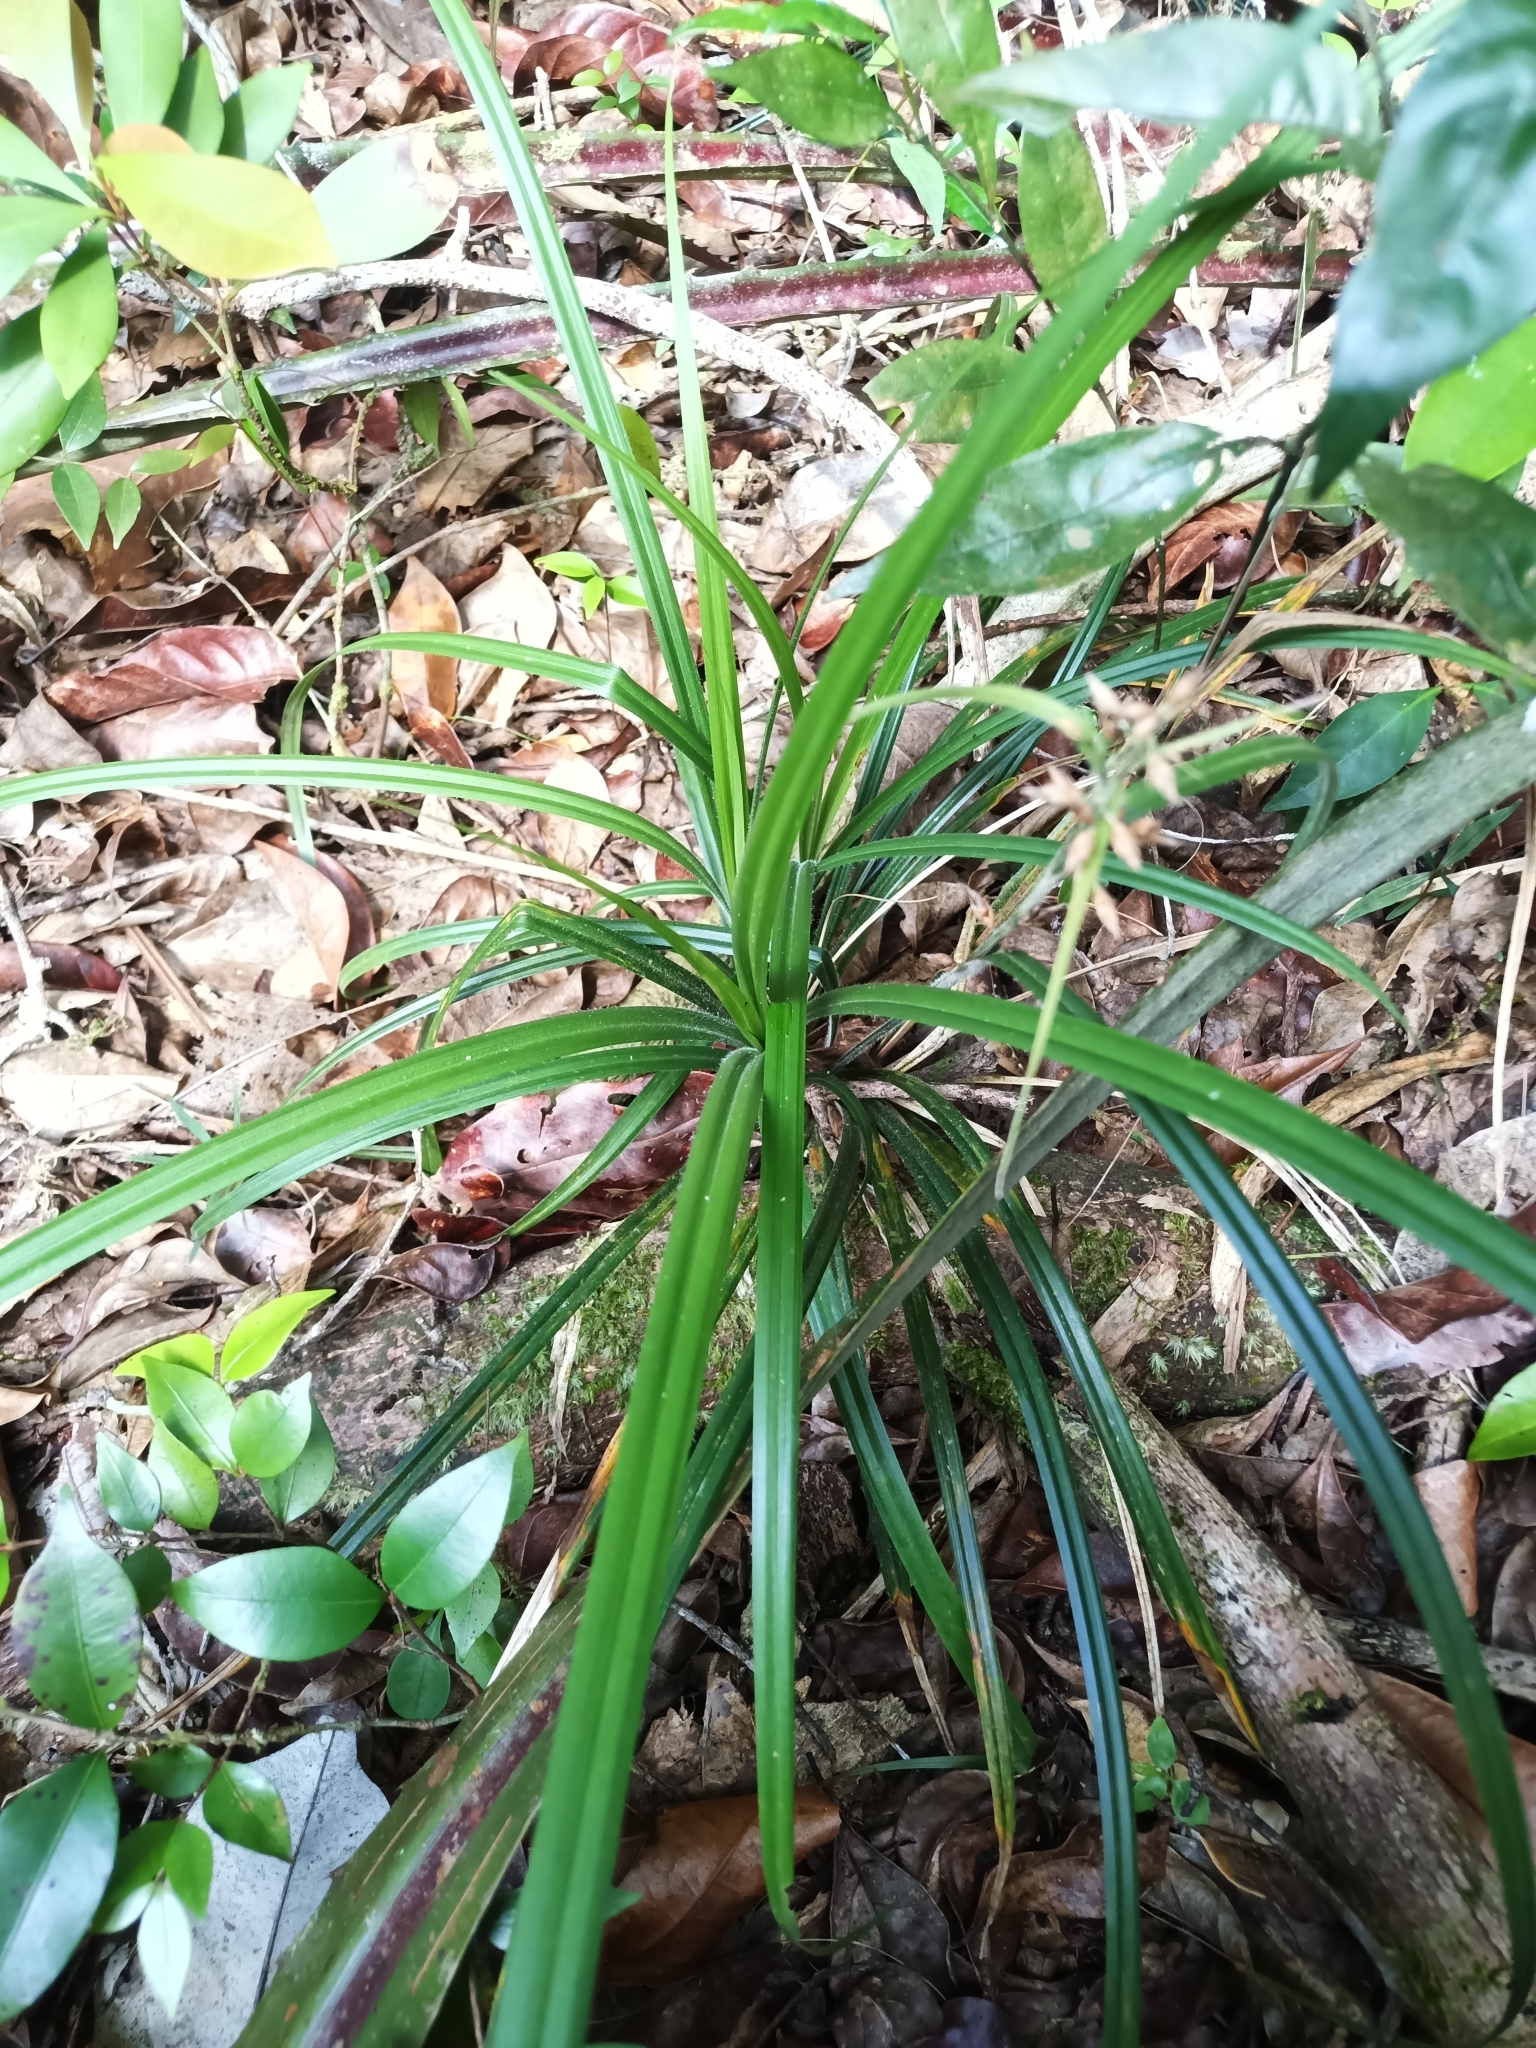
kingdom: Plantae
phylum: Tracheophyta
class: Liliopsida
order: Poales
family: Cyperaceae
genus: Rhynchospora
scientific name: Rhynchospora comata
